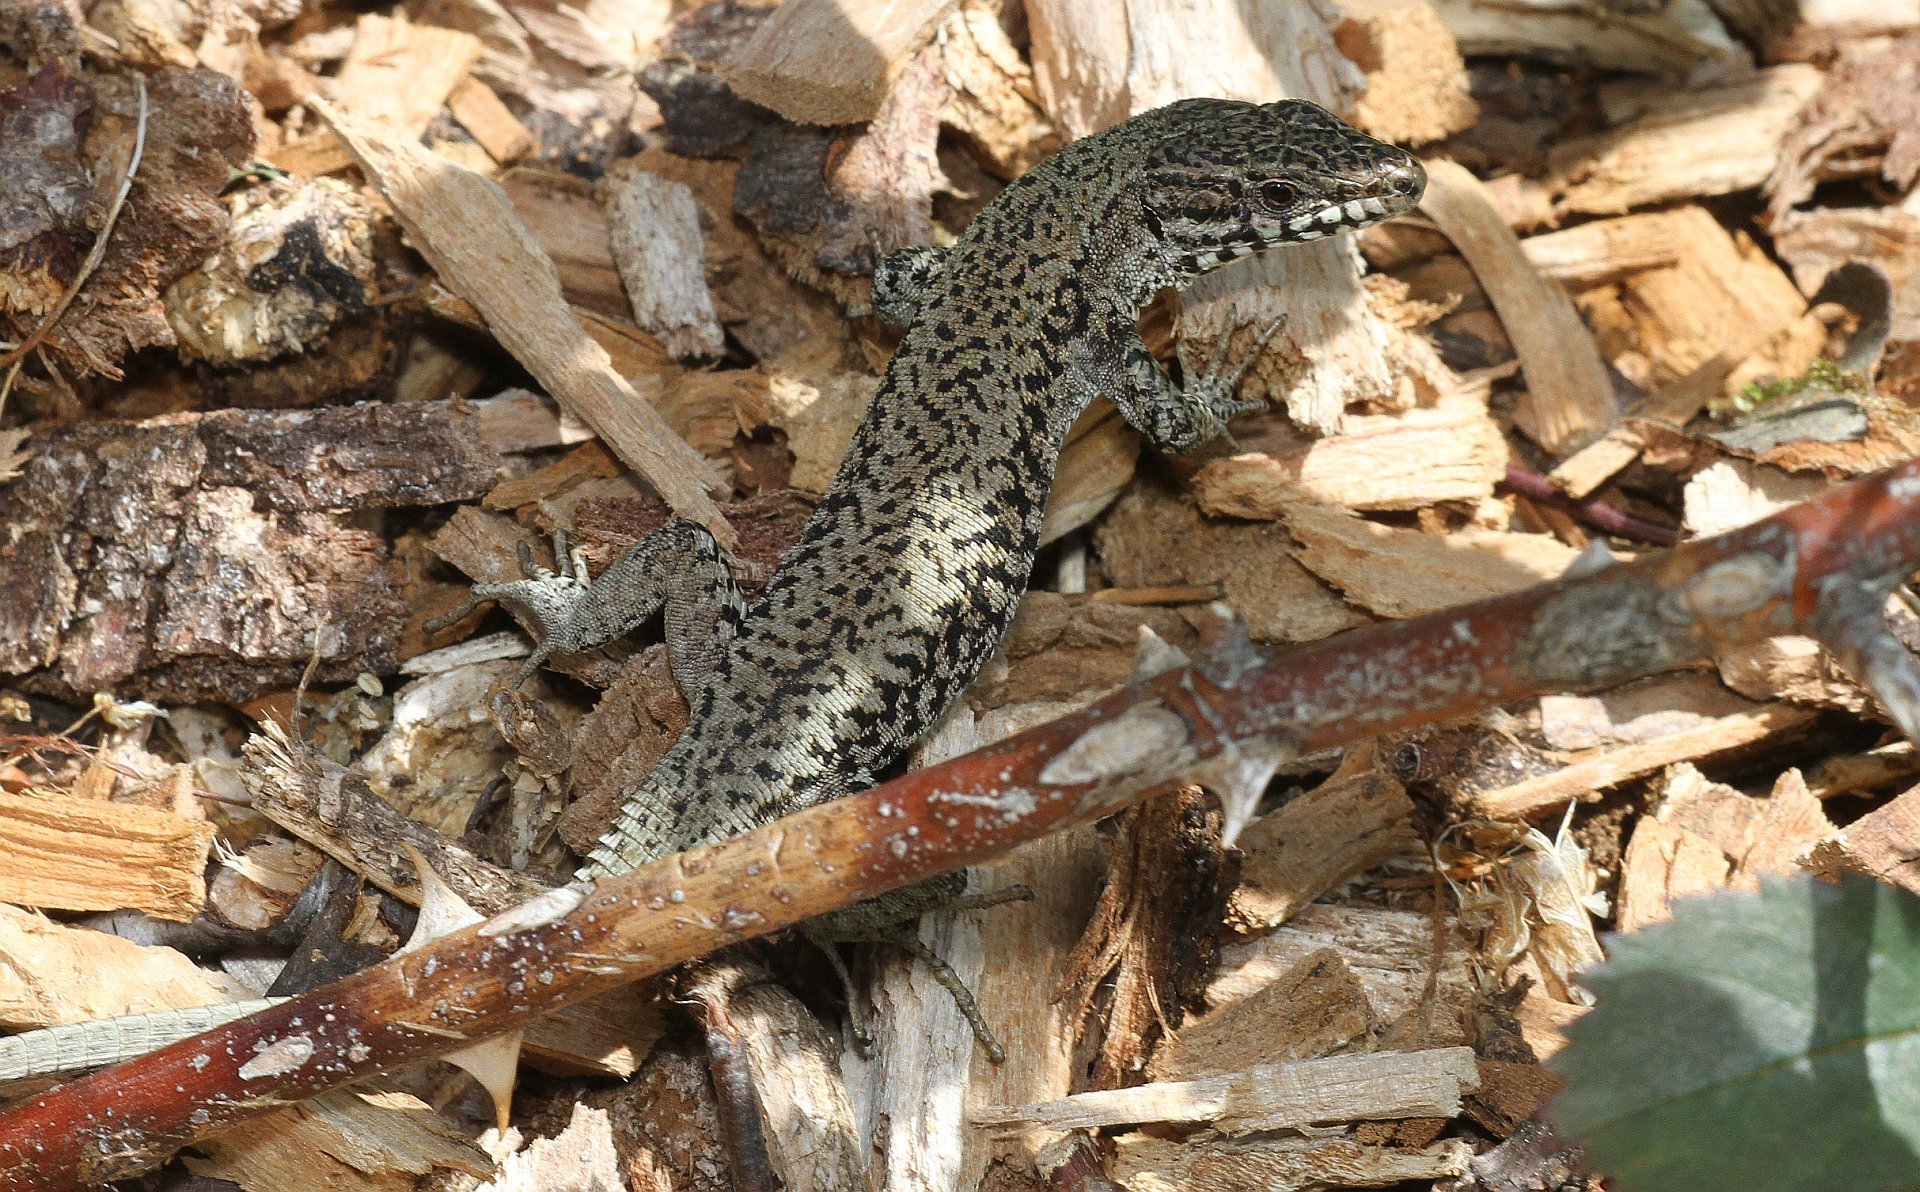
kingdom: Animalia
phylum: Chordata
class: Squamata
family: Lacertidae
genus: Podarcis
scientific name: Podarcis muralis
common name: Common wall lizard
